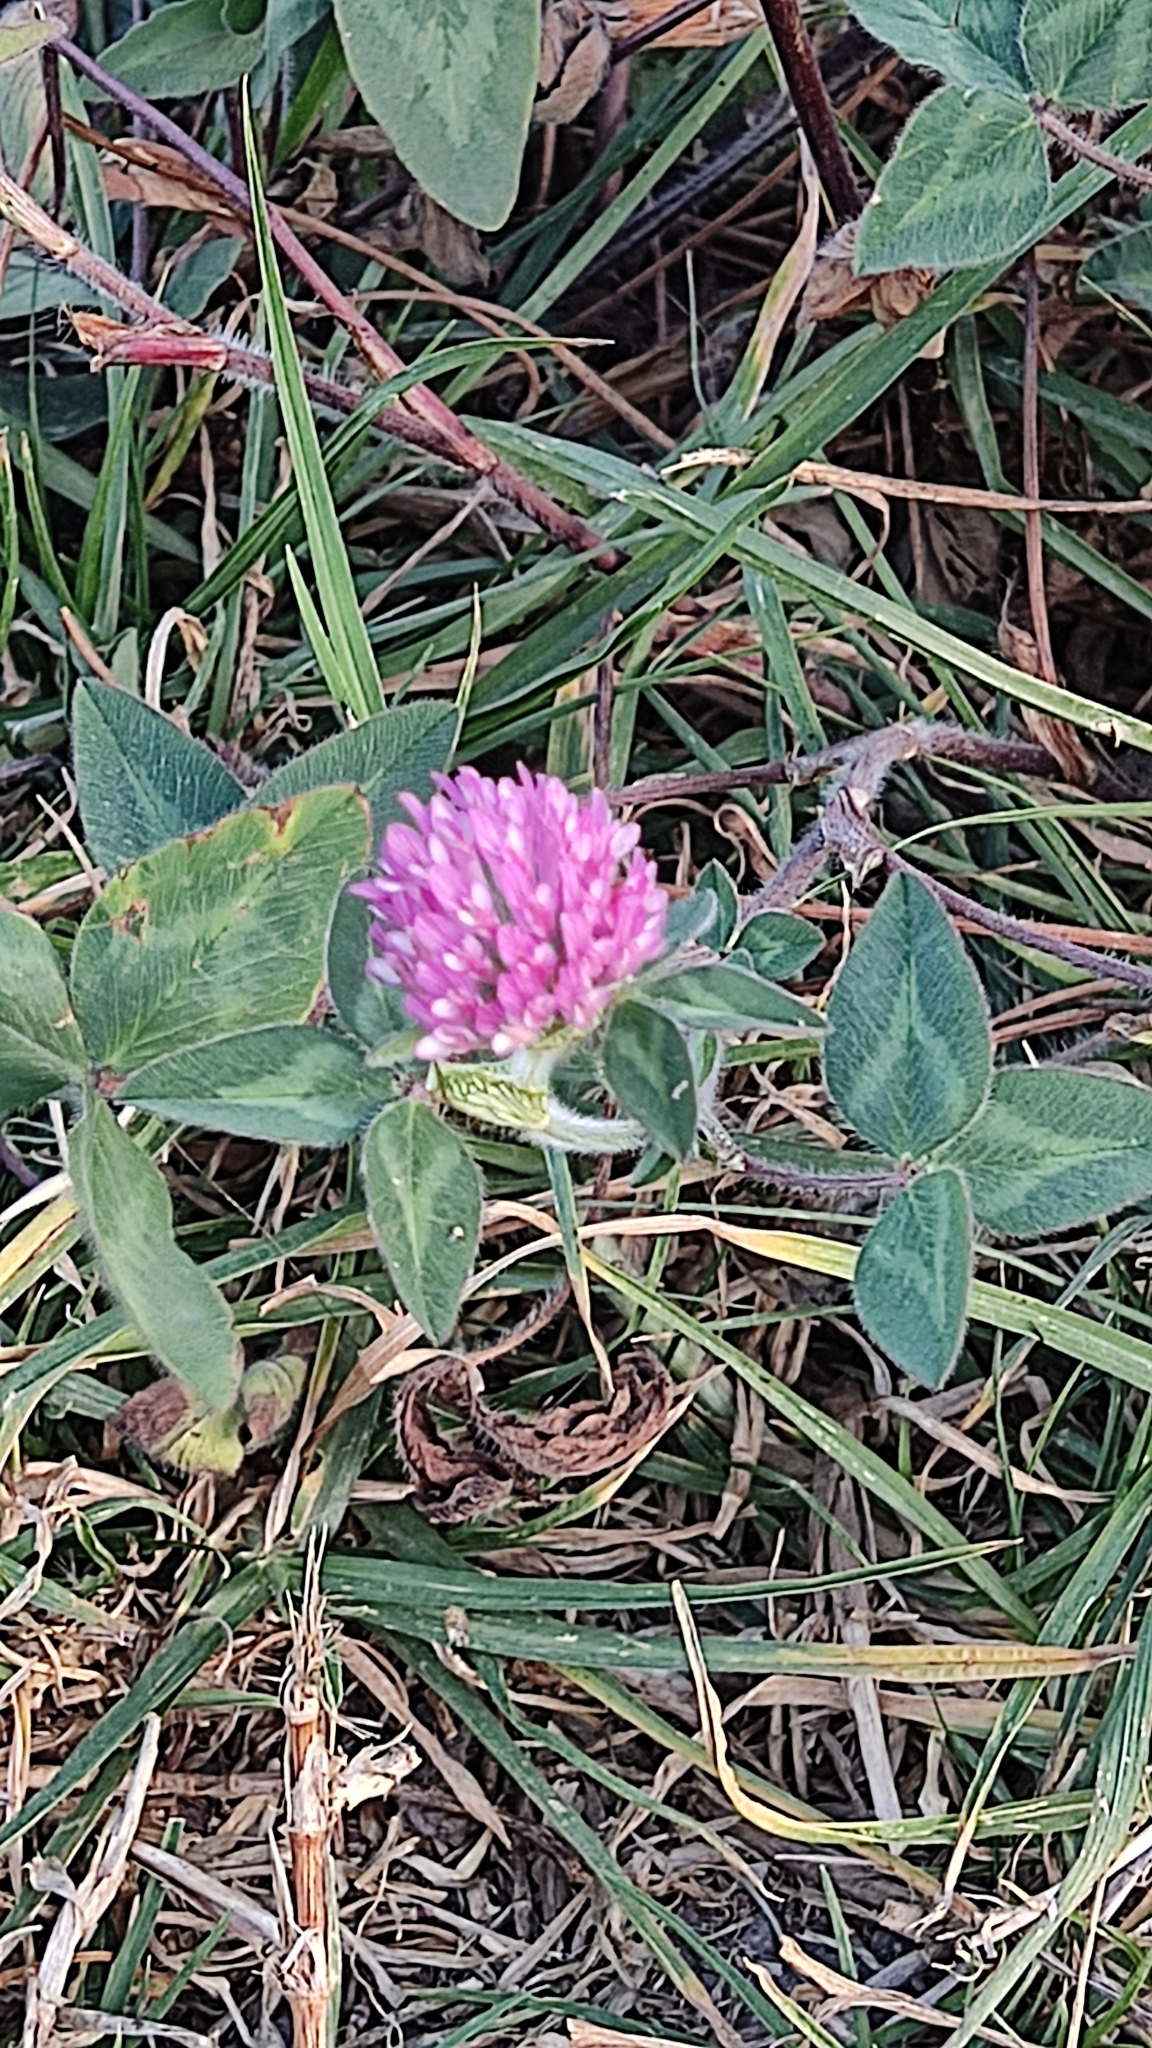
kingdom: Plantae
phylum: Tracheophyta
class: Magnoliopsida
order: Fabales
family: Fabaceae
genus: Trifolium
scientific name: Trifolium pratense
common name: Red clover
